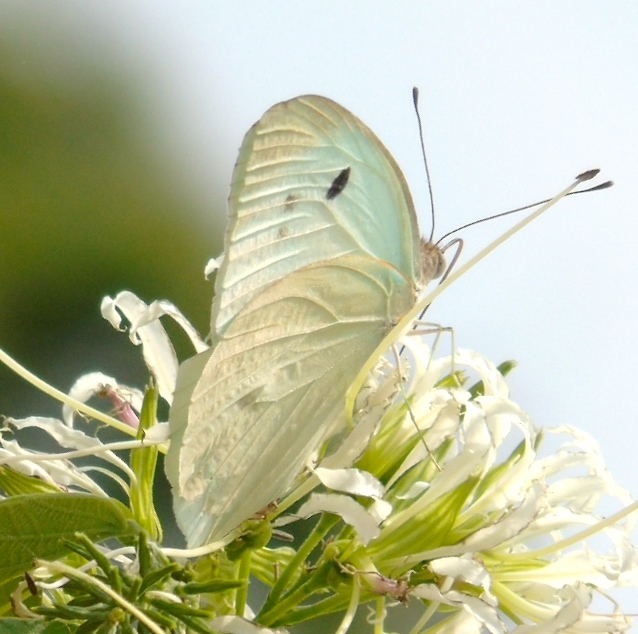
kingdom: Animalia
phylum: Arthropoda
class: Insecta
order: Lepidoptera
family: Pieridae
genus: Ganyra
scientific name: Ganyra josephina
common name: Giant white
